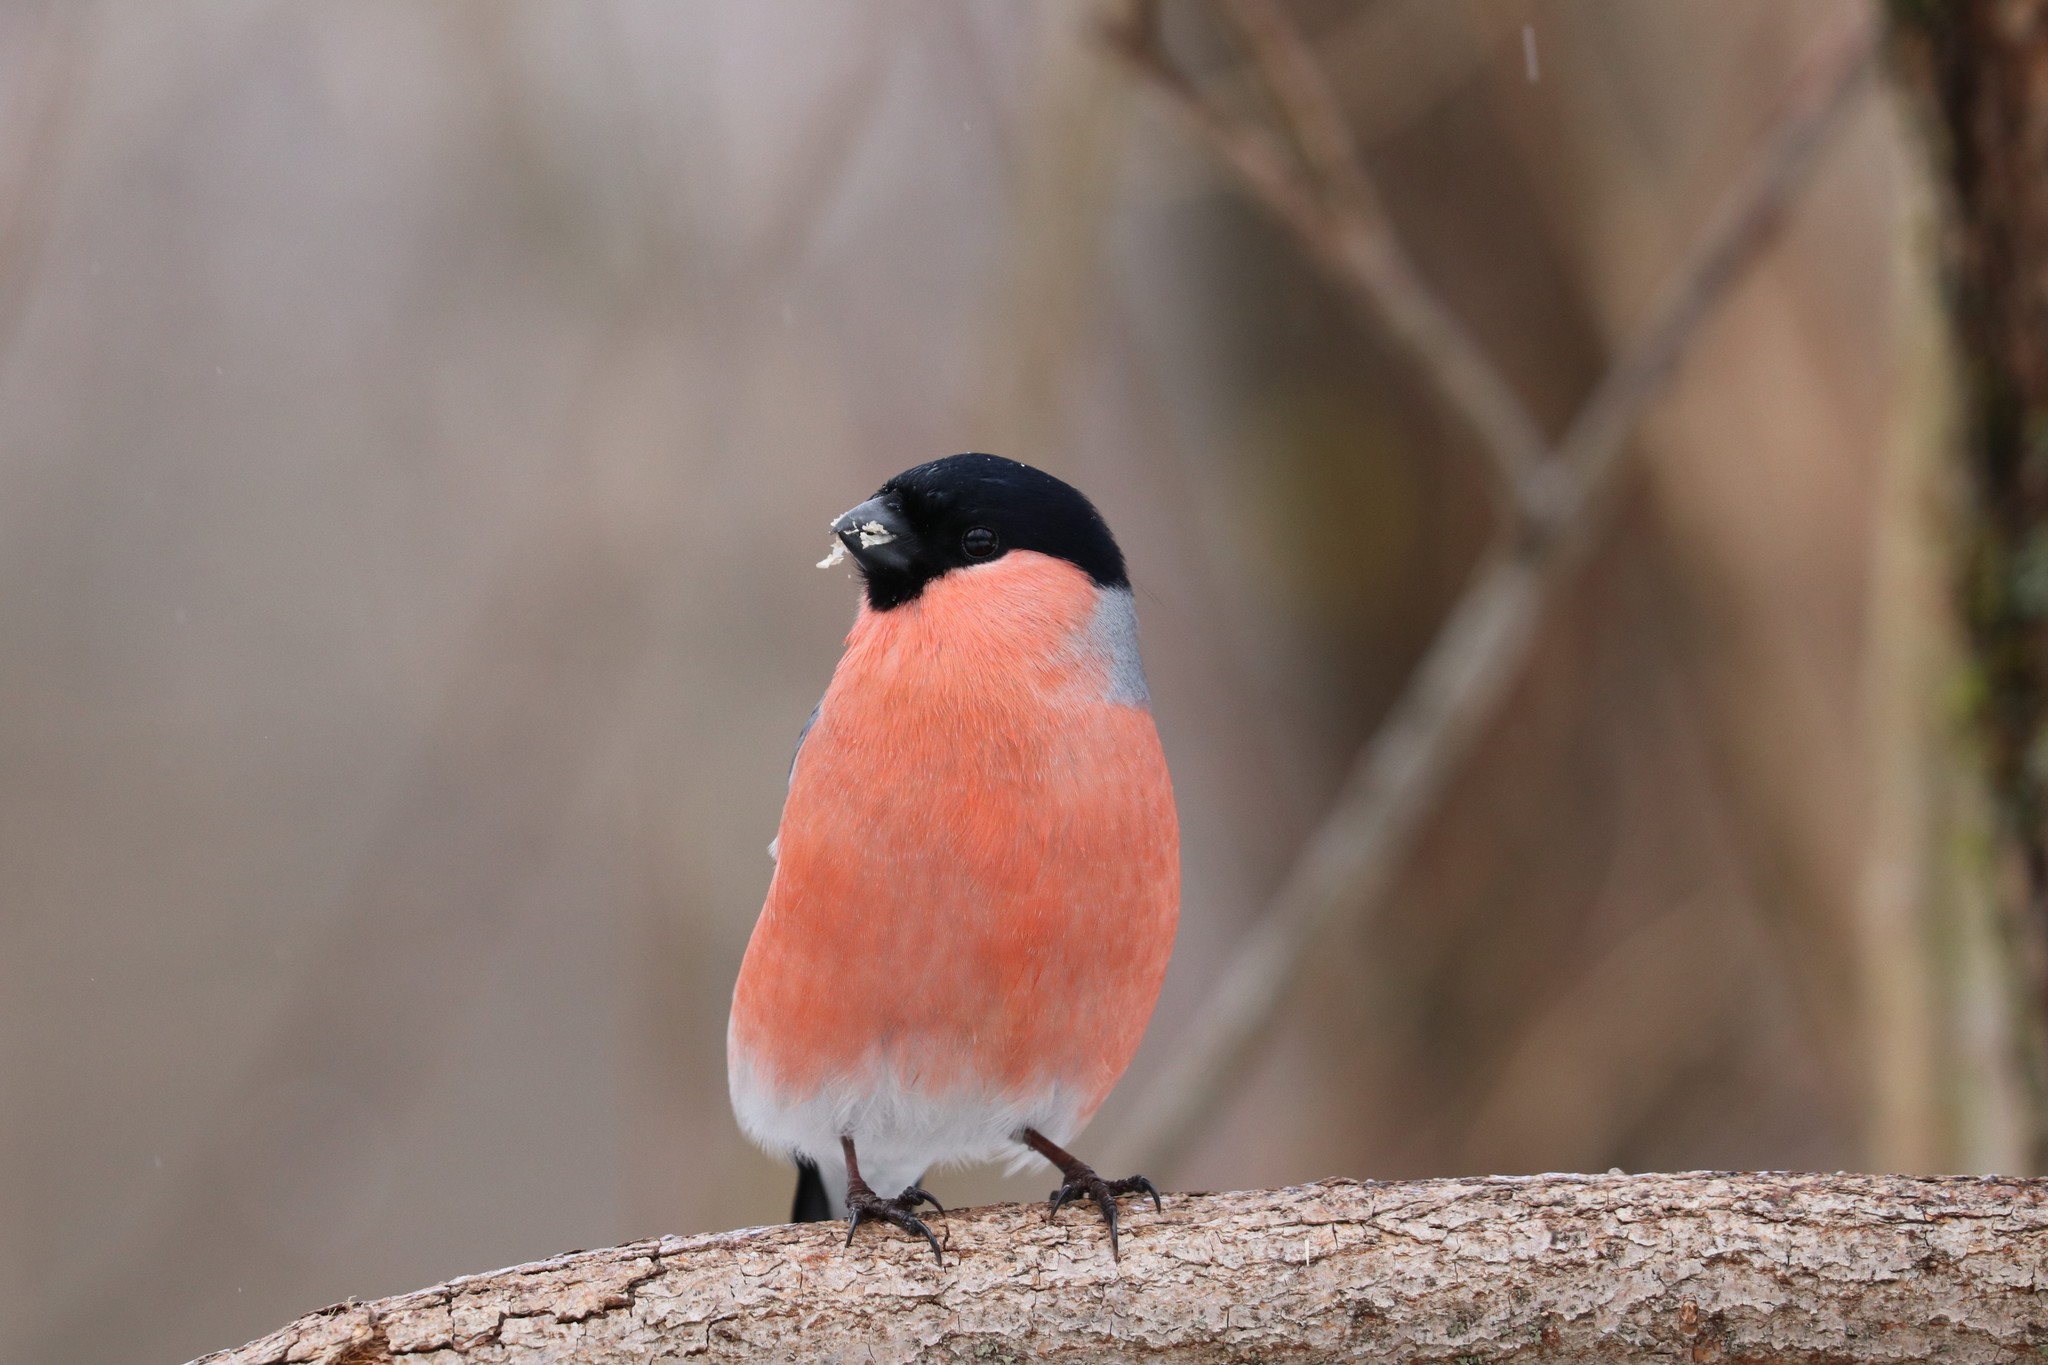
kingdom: Animalia
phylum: Chordata
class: Aves
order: Passeriformes
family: Fringillidae
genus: Pyrrhula
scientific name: Pyrrhula pyrrhula
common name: Eurasian bullfinch
